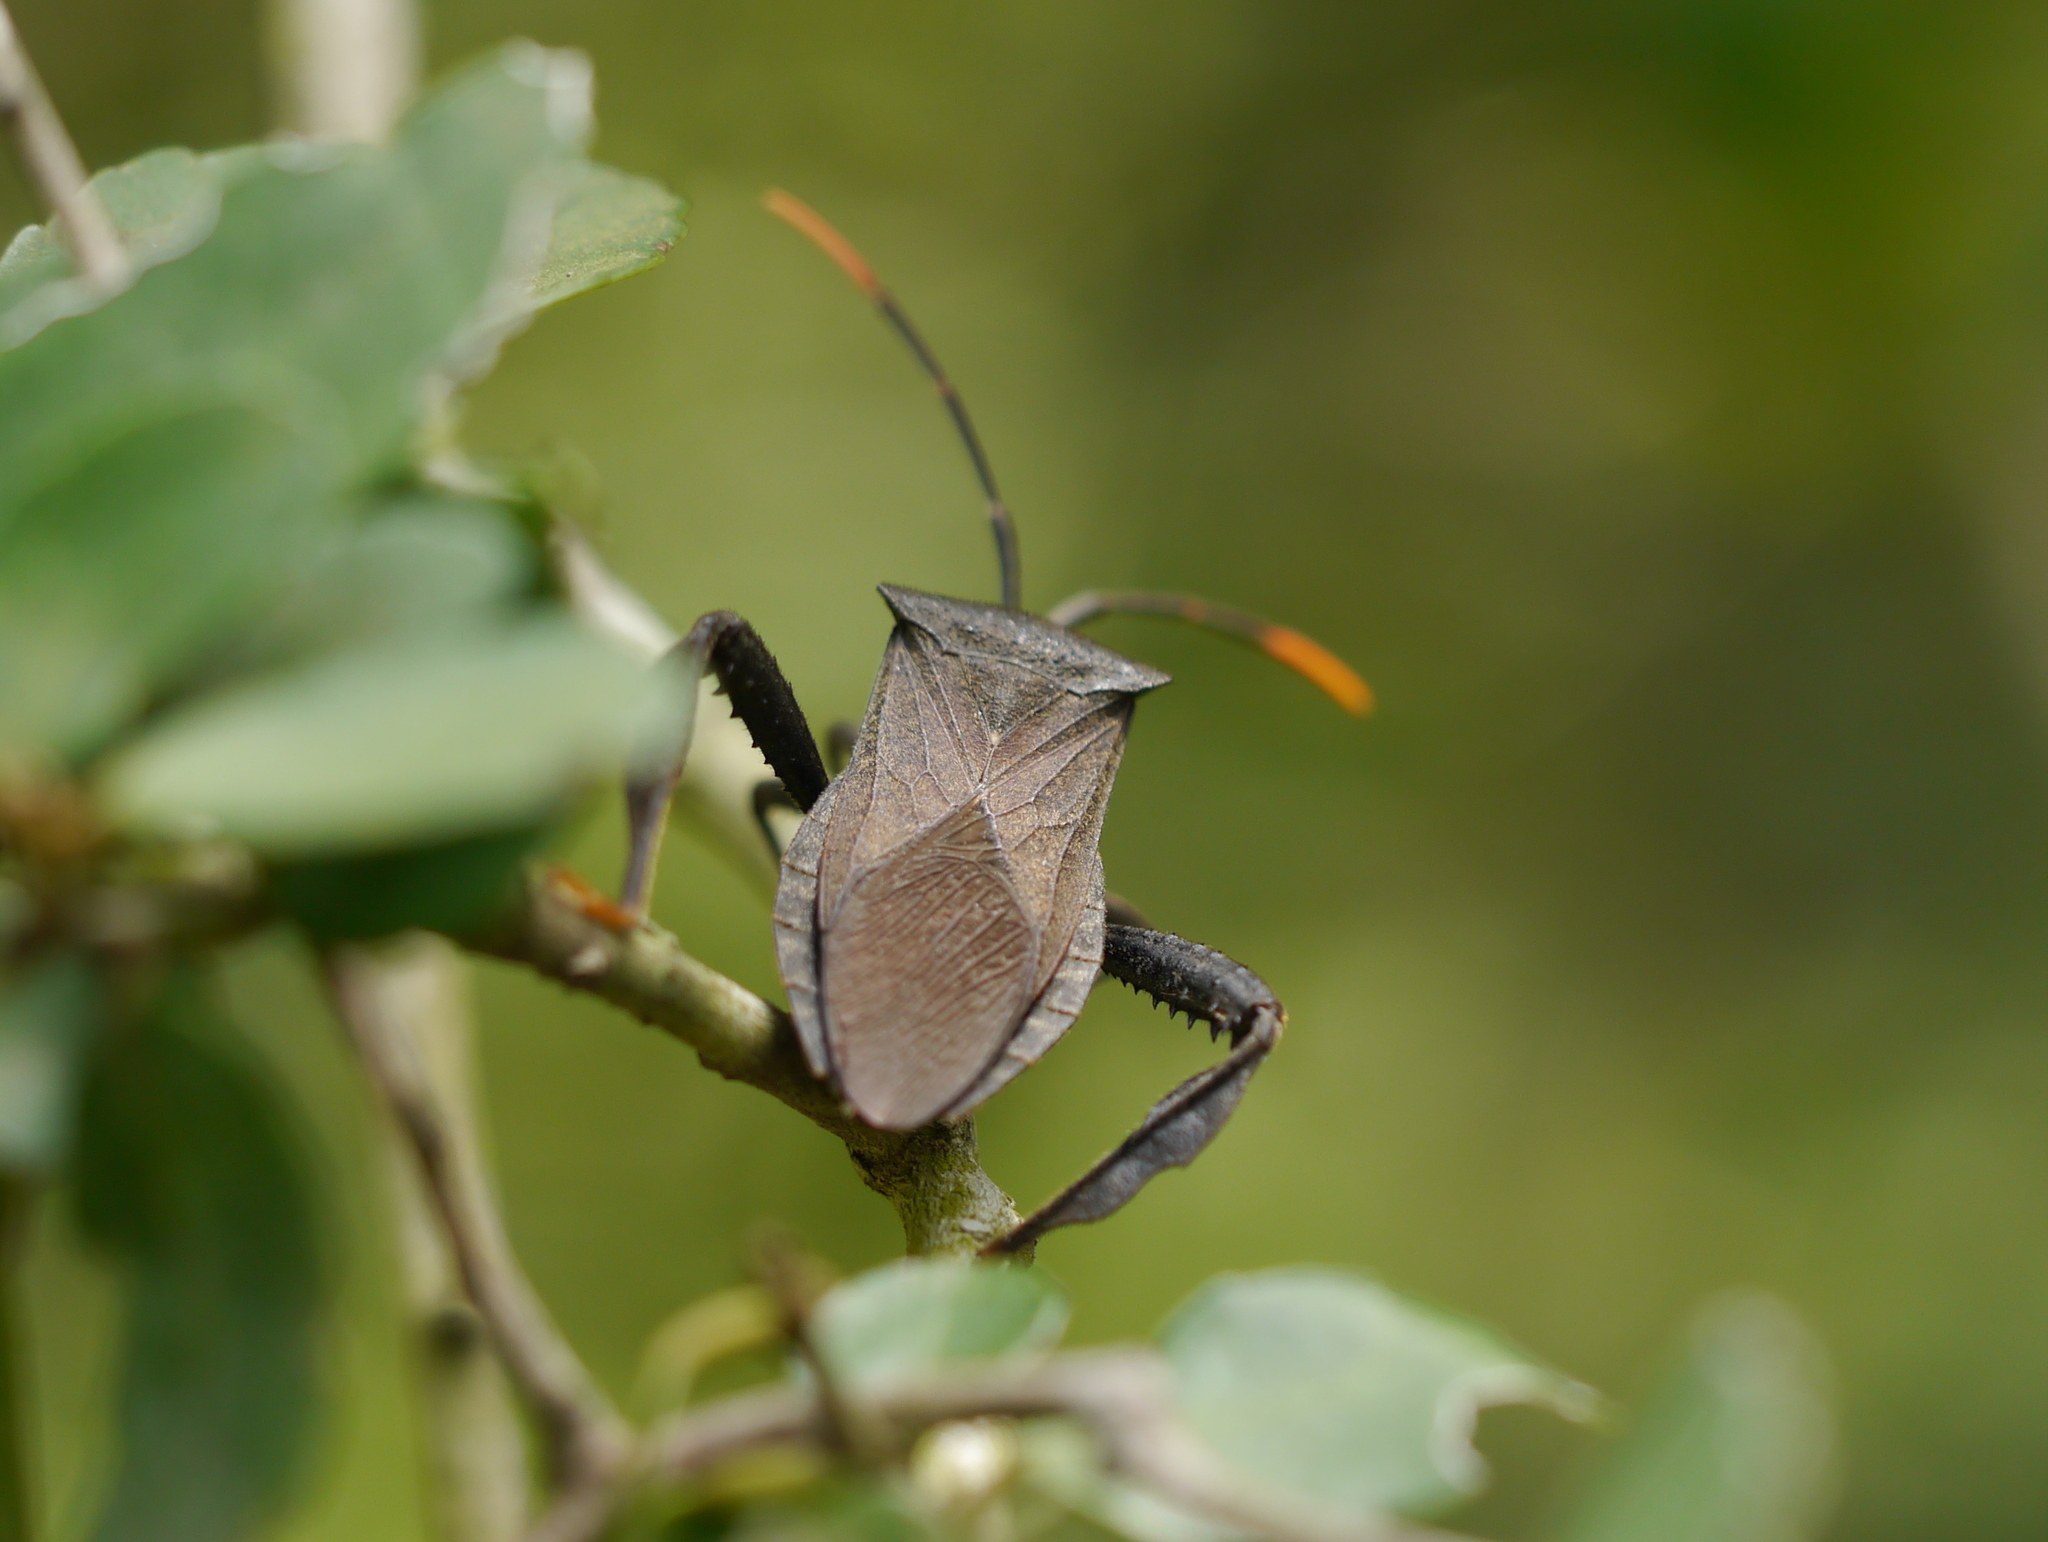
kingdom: Animalia
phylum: Arthropoda
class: Insecta
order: Hemiptera
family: Coreidae
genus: Acanthocephala
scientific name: Acanthocephala terminalis
